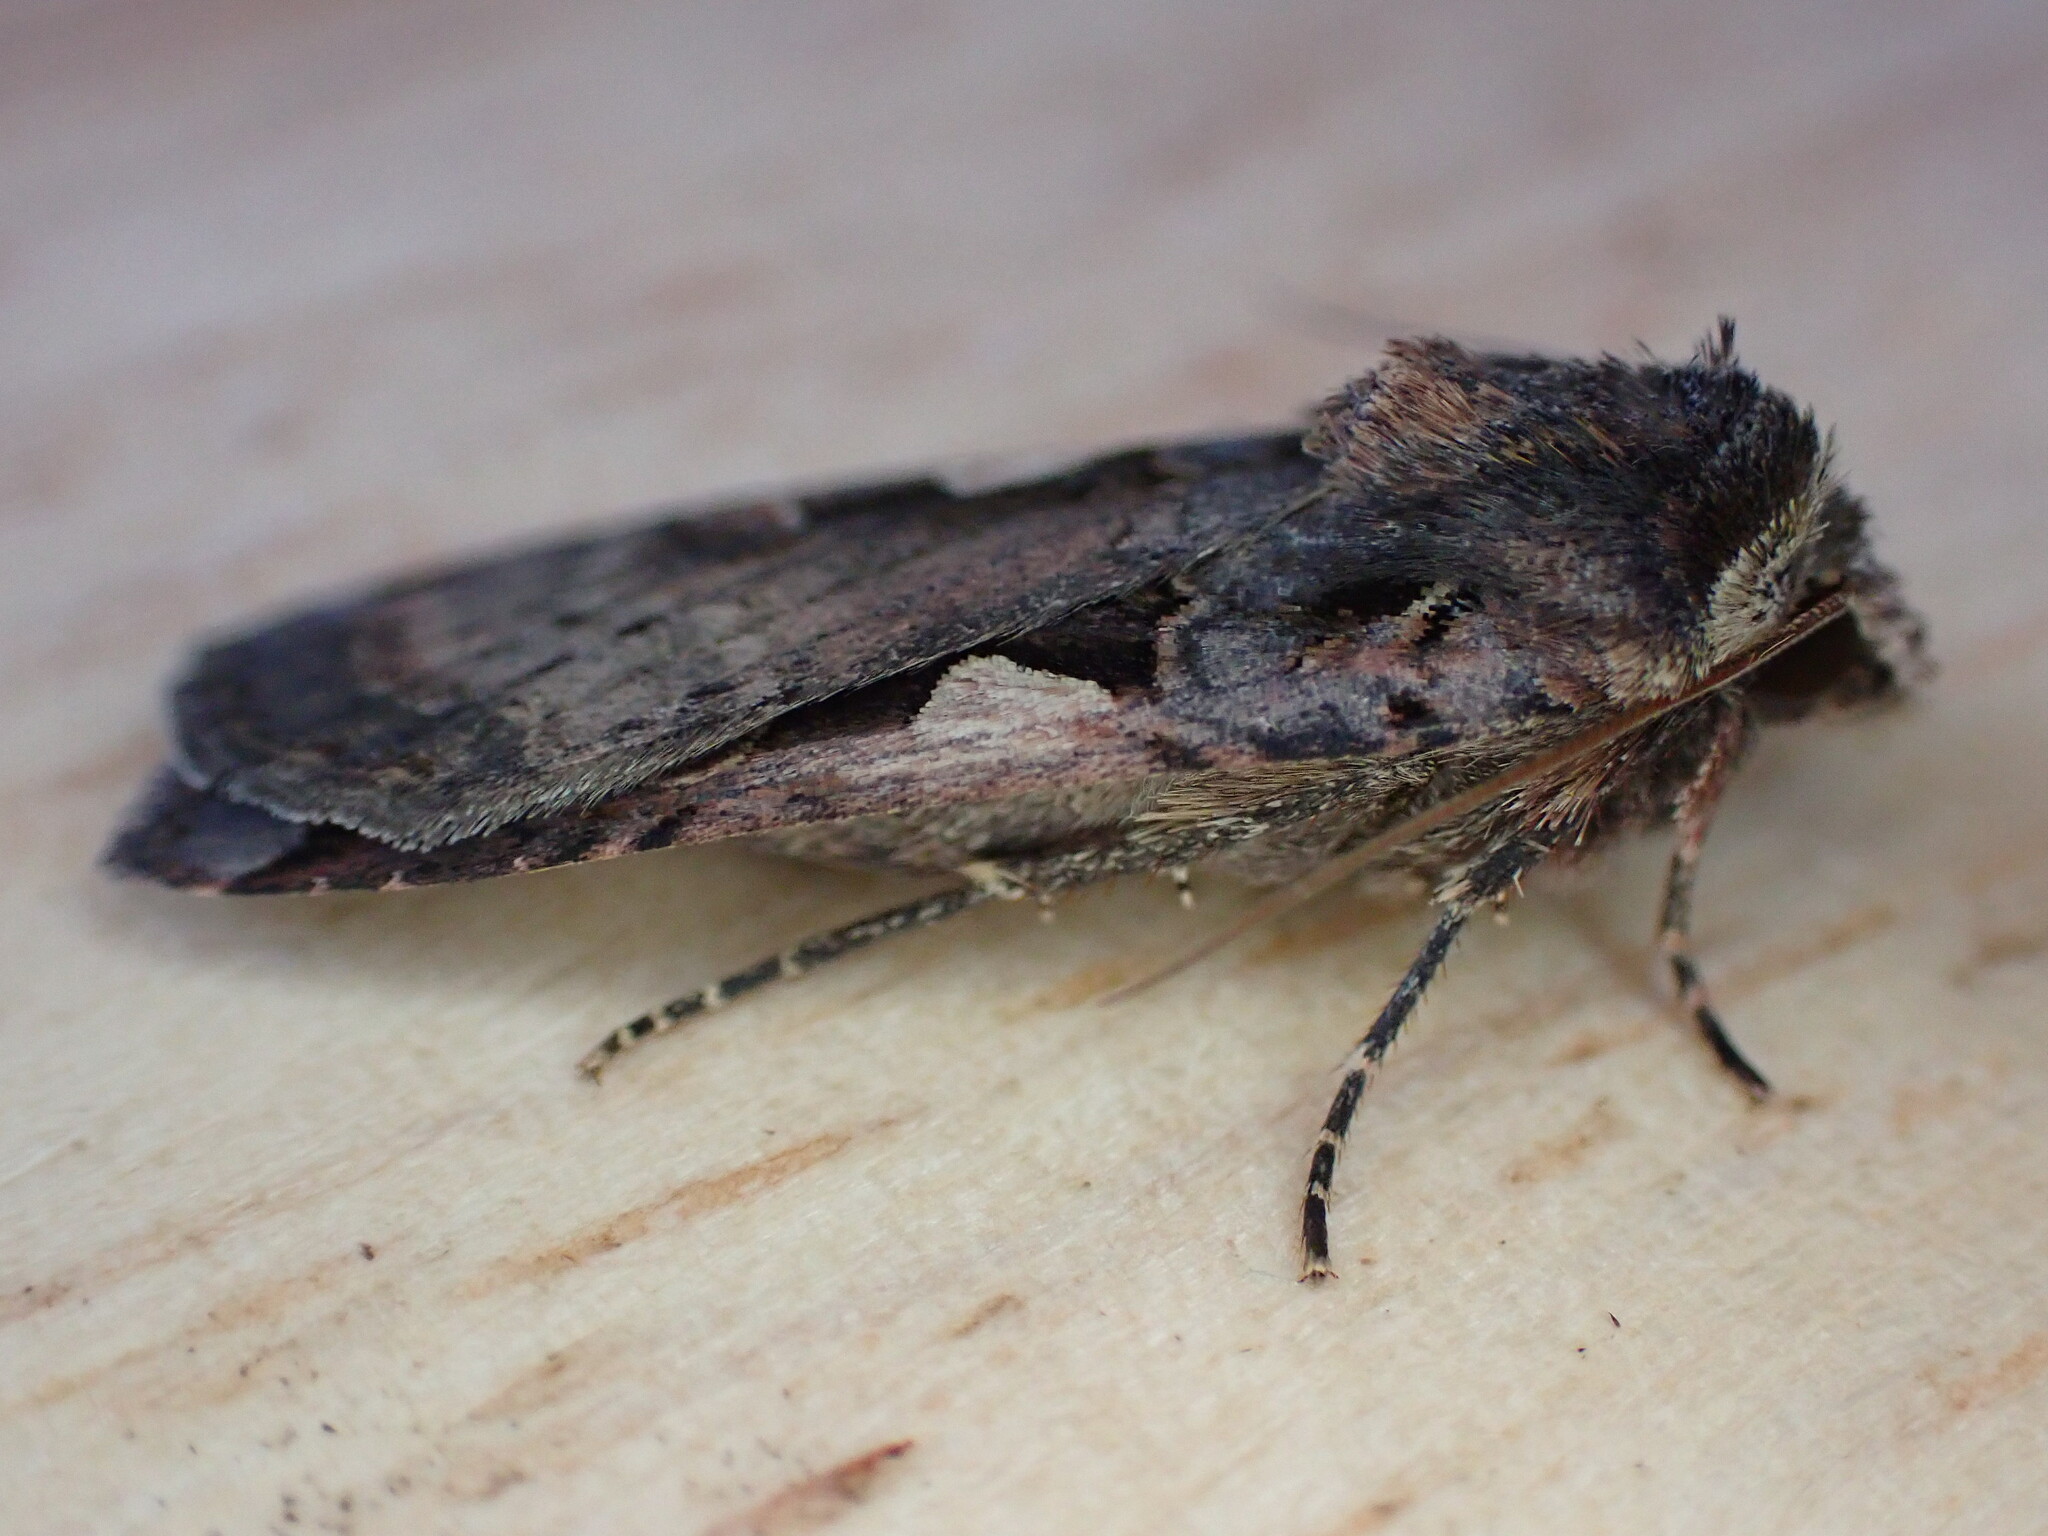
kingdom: Animalia
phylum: Arthropoda
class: Insecta
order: Lepidoptera
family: Noctuidae
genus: Xestia
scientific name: Xestia c-nigrum
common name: Setaceous hebrew character
